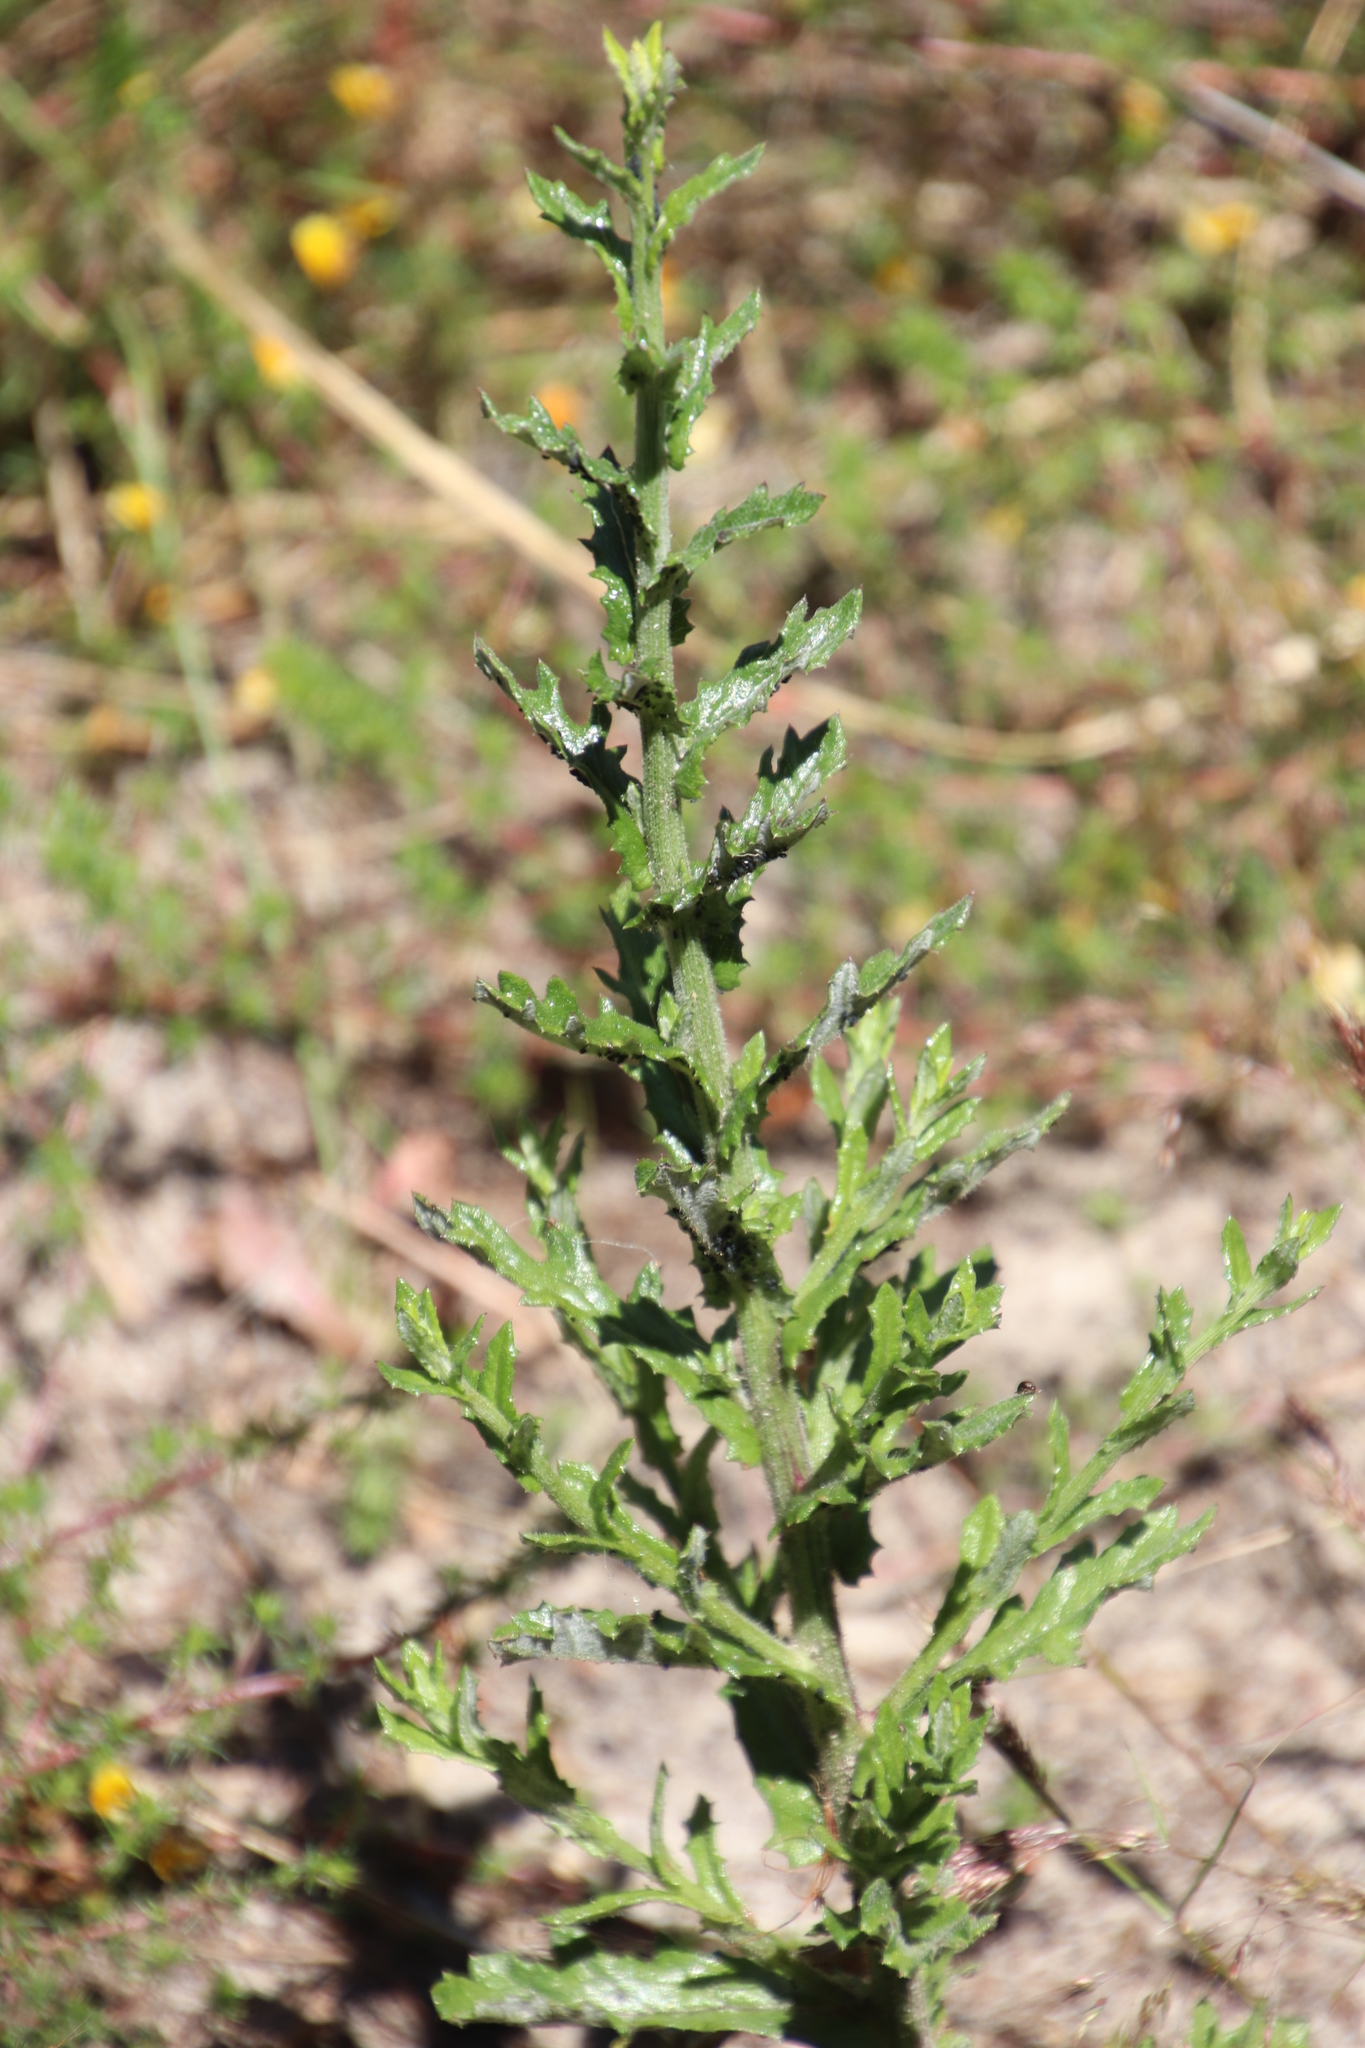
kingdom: Plantae
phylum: Tracheophyta
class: Magnoliopsida
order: Asterales
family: Asteraceae
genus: Senecio
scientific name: Senecio pubigerus
